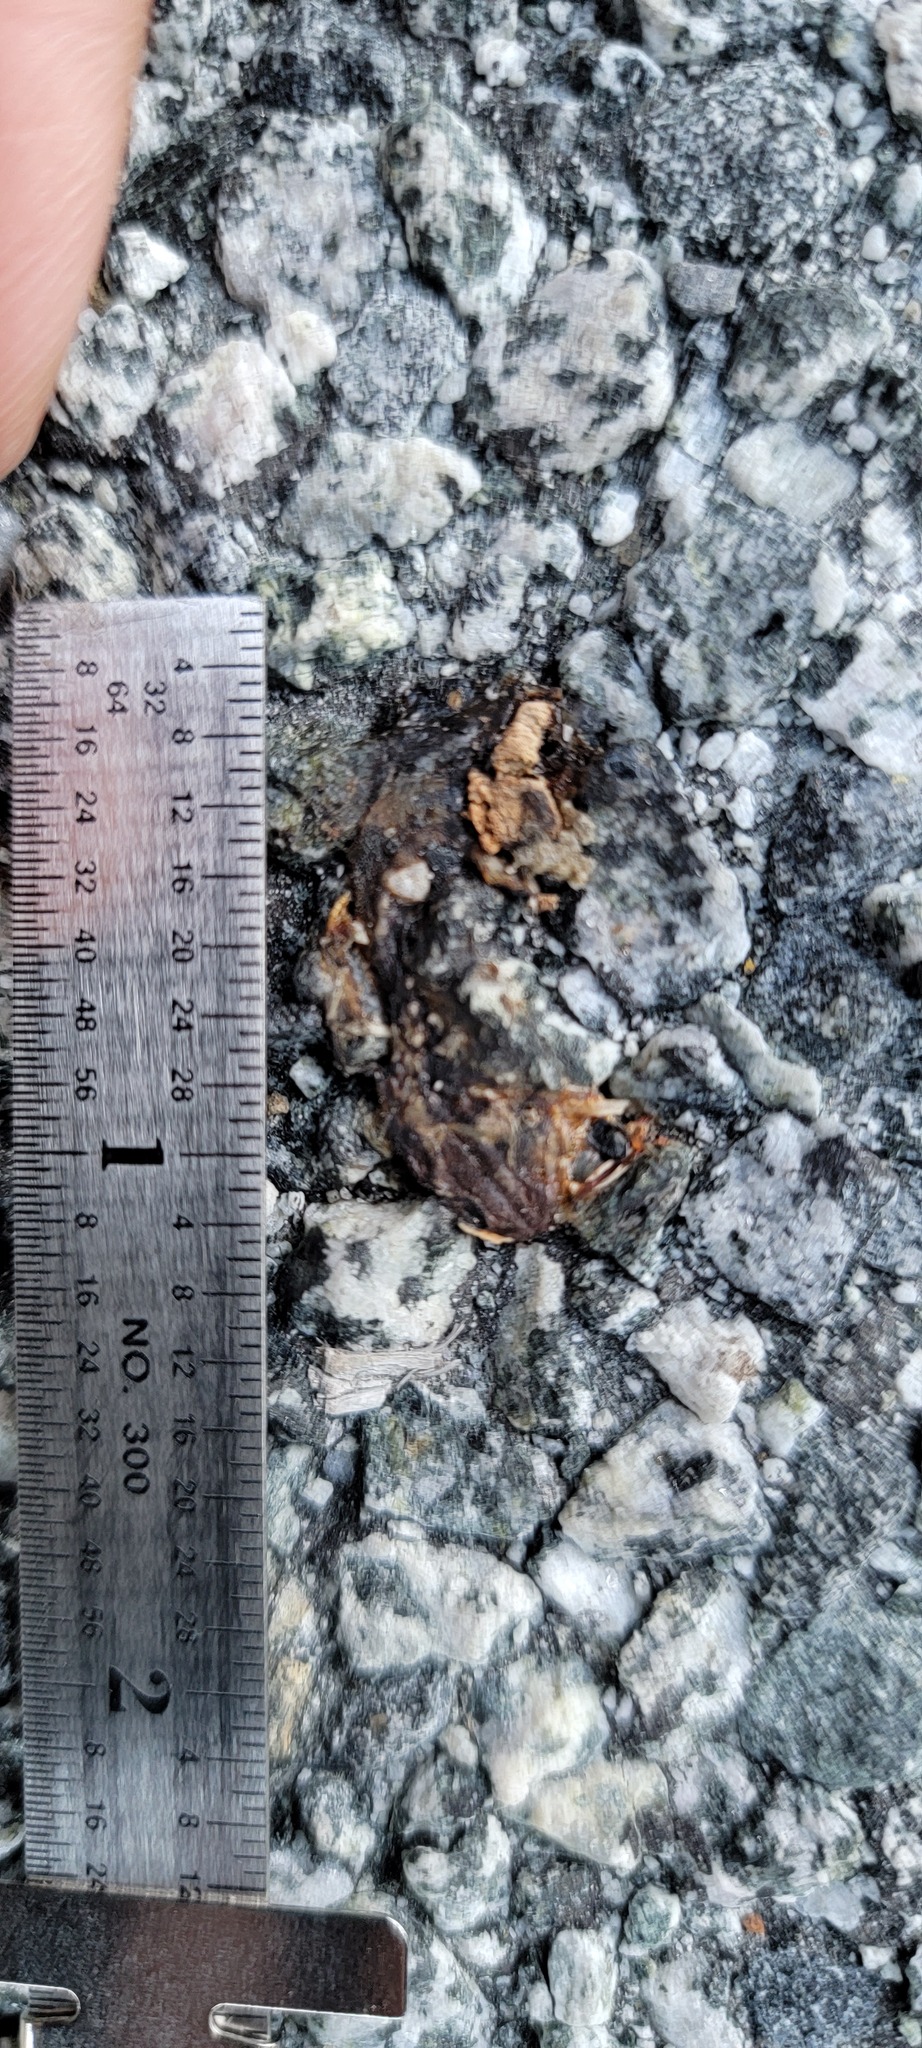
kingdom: Animalia
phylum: Chordata
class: Amphibia
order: Caudata
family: Salamandridae
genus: Taricha
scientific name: Taricha
